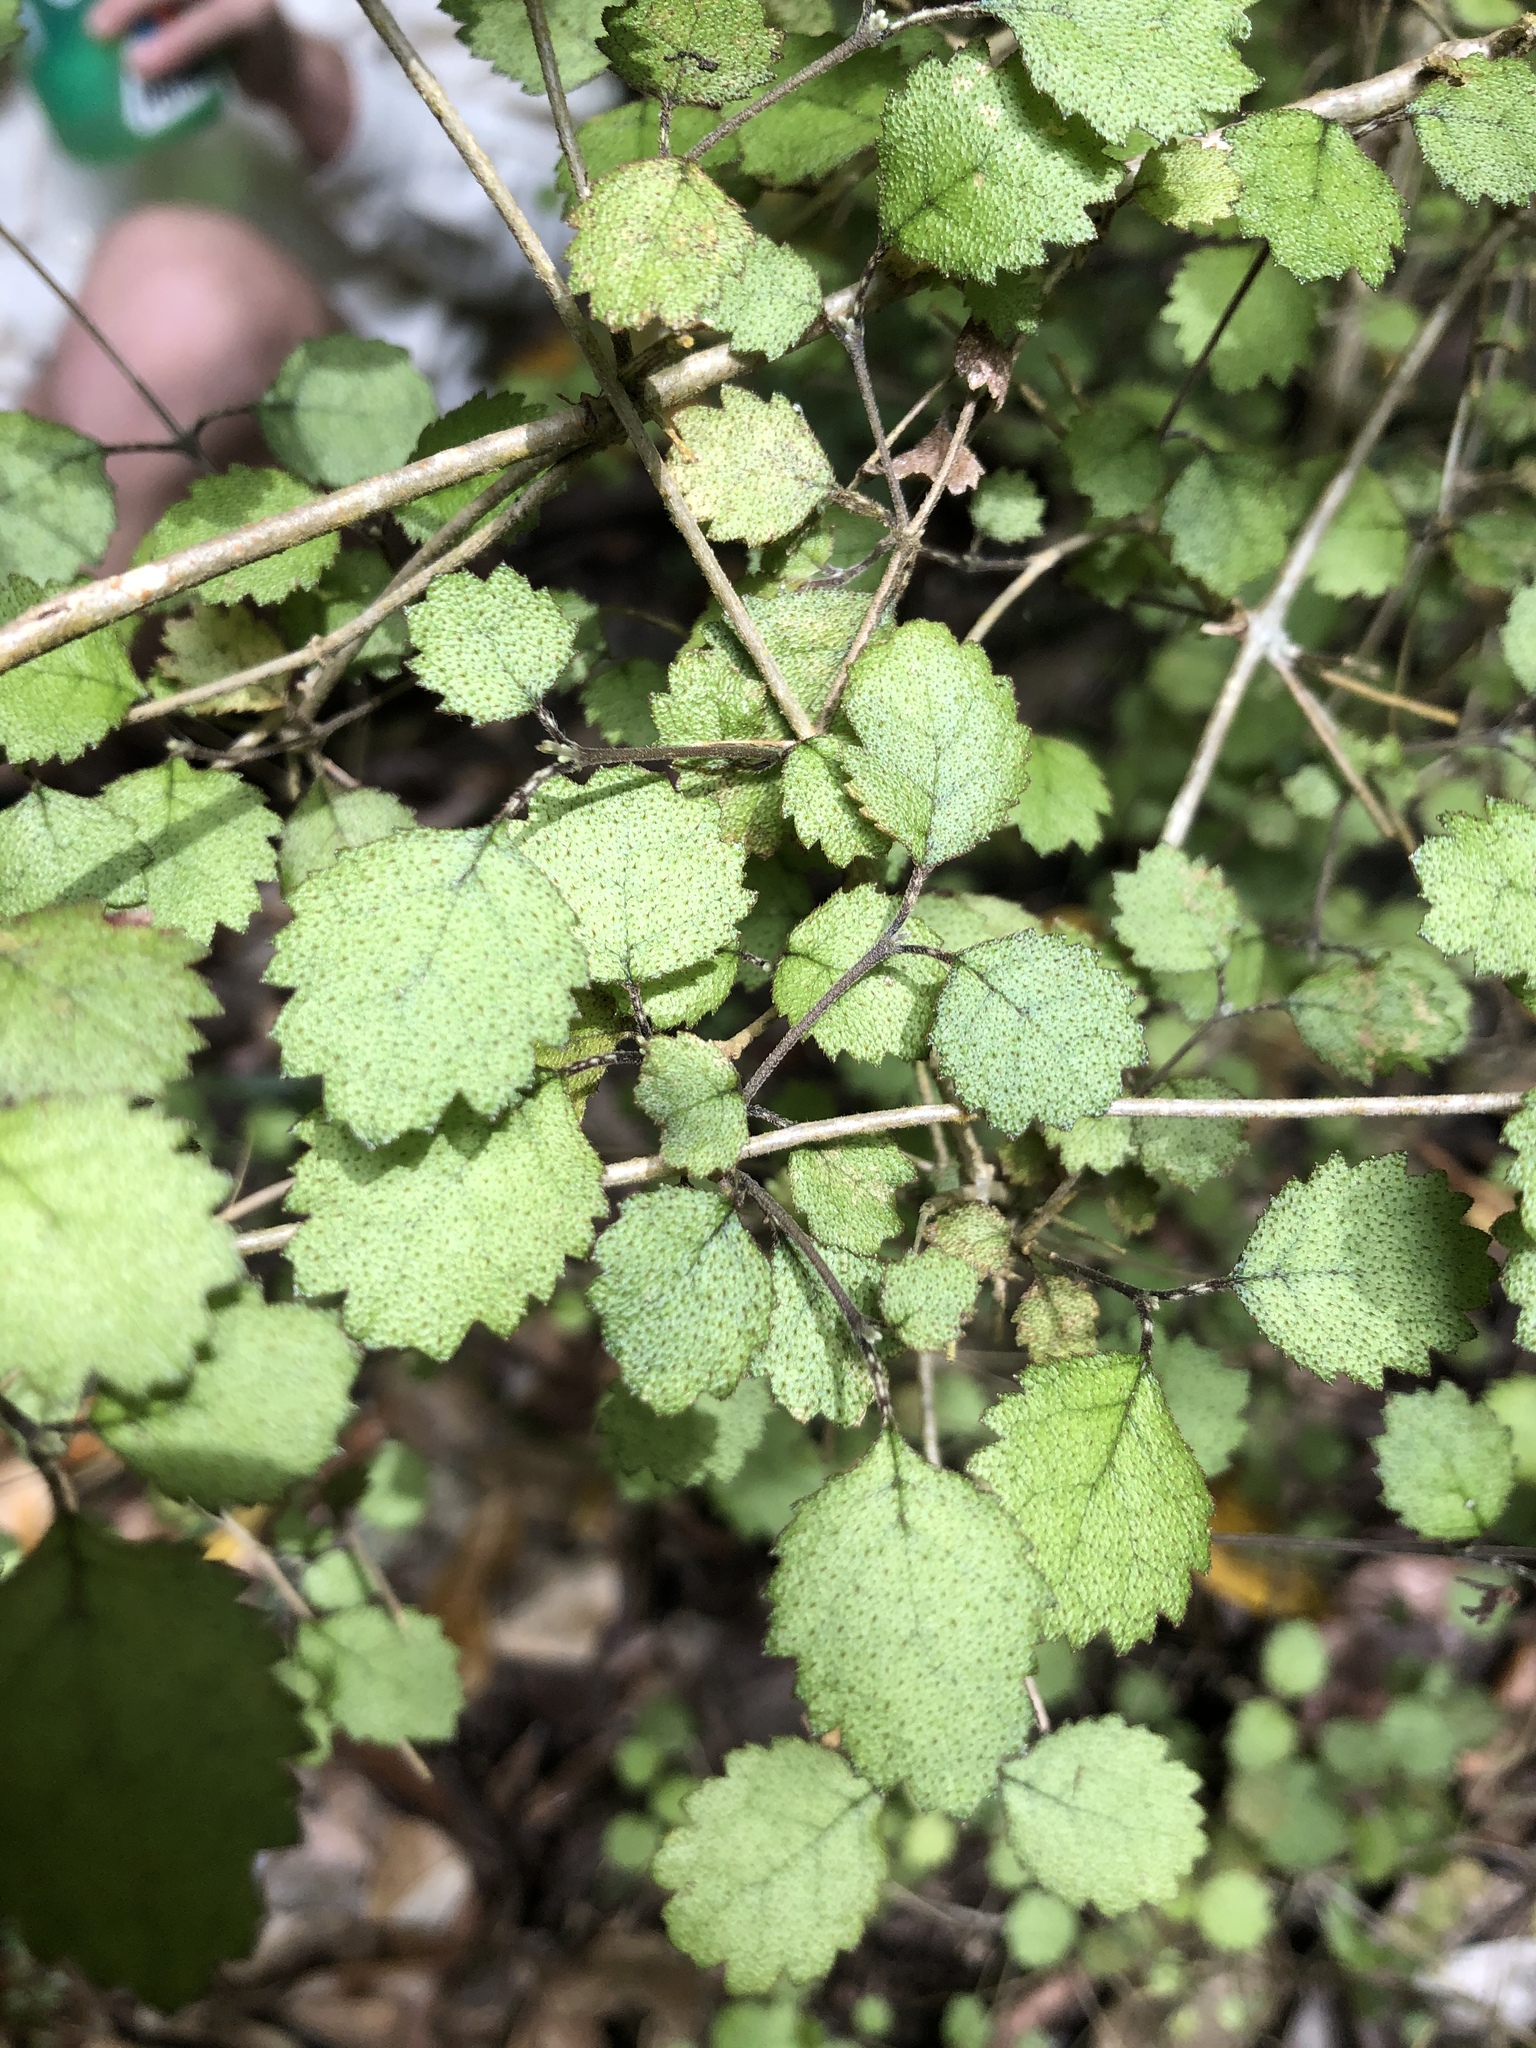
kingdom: Plantae
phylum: Tracheophyta
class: Magnoliopsida
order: Lamiales
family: Gesneriaceae
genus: Rhabdothamnus
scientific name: Rhabdothamnus solandri
